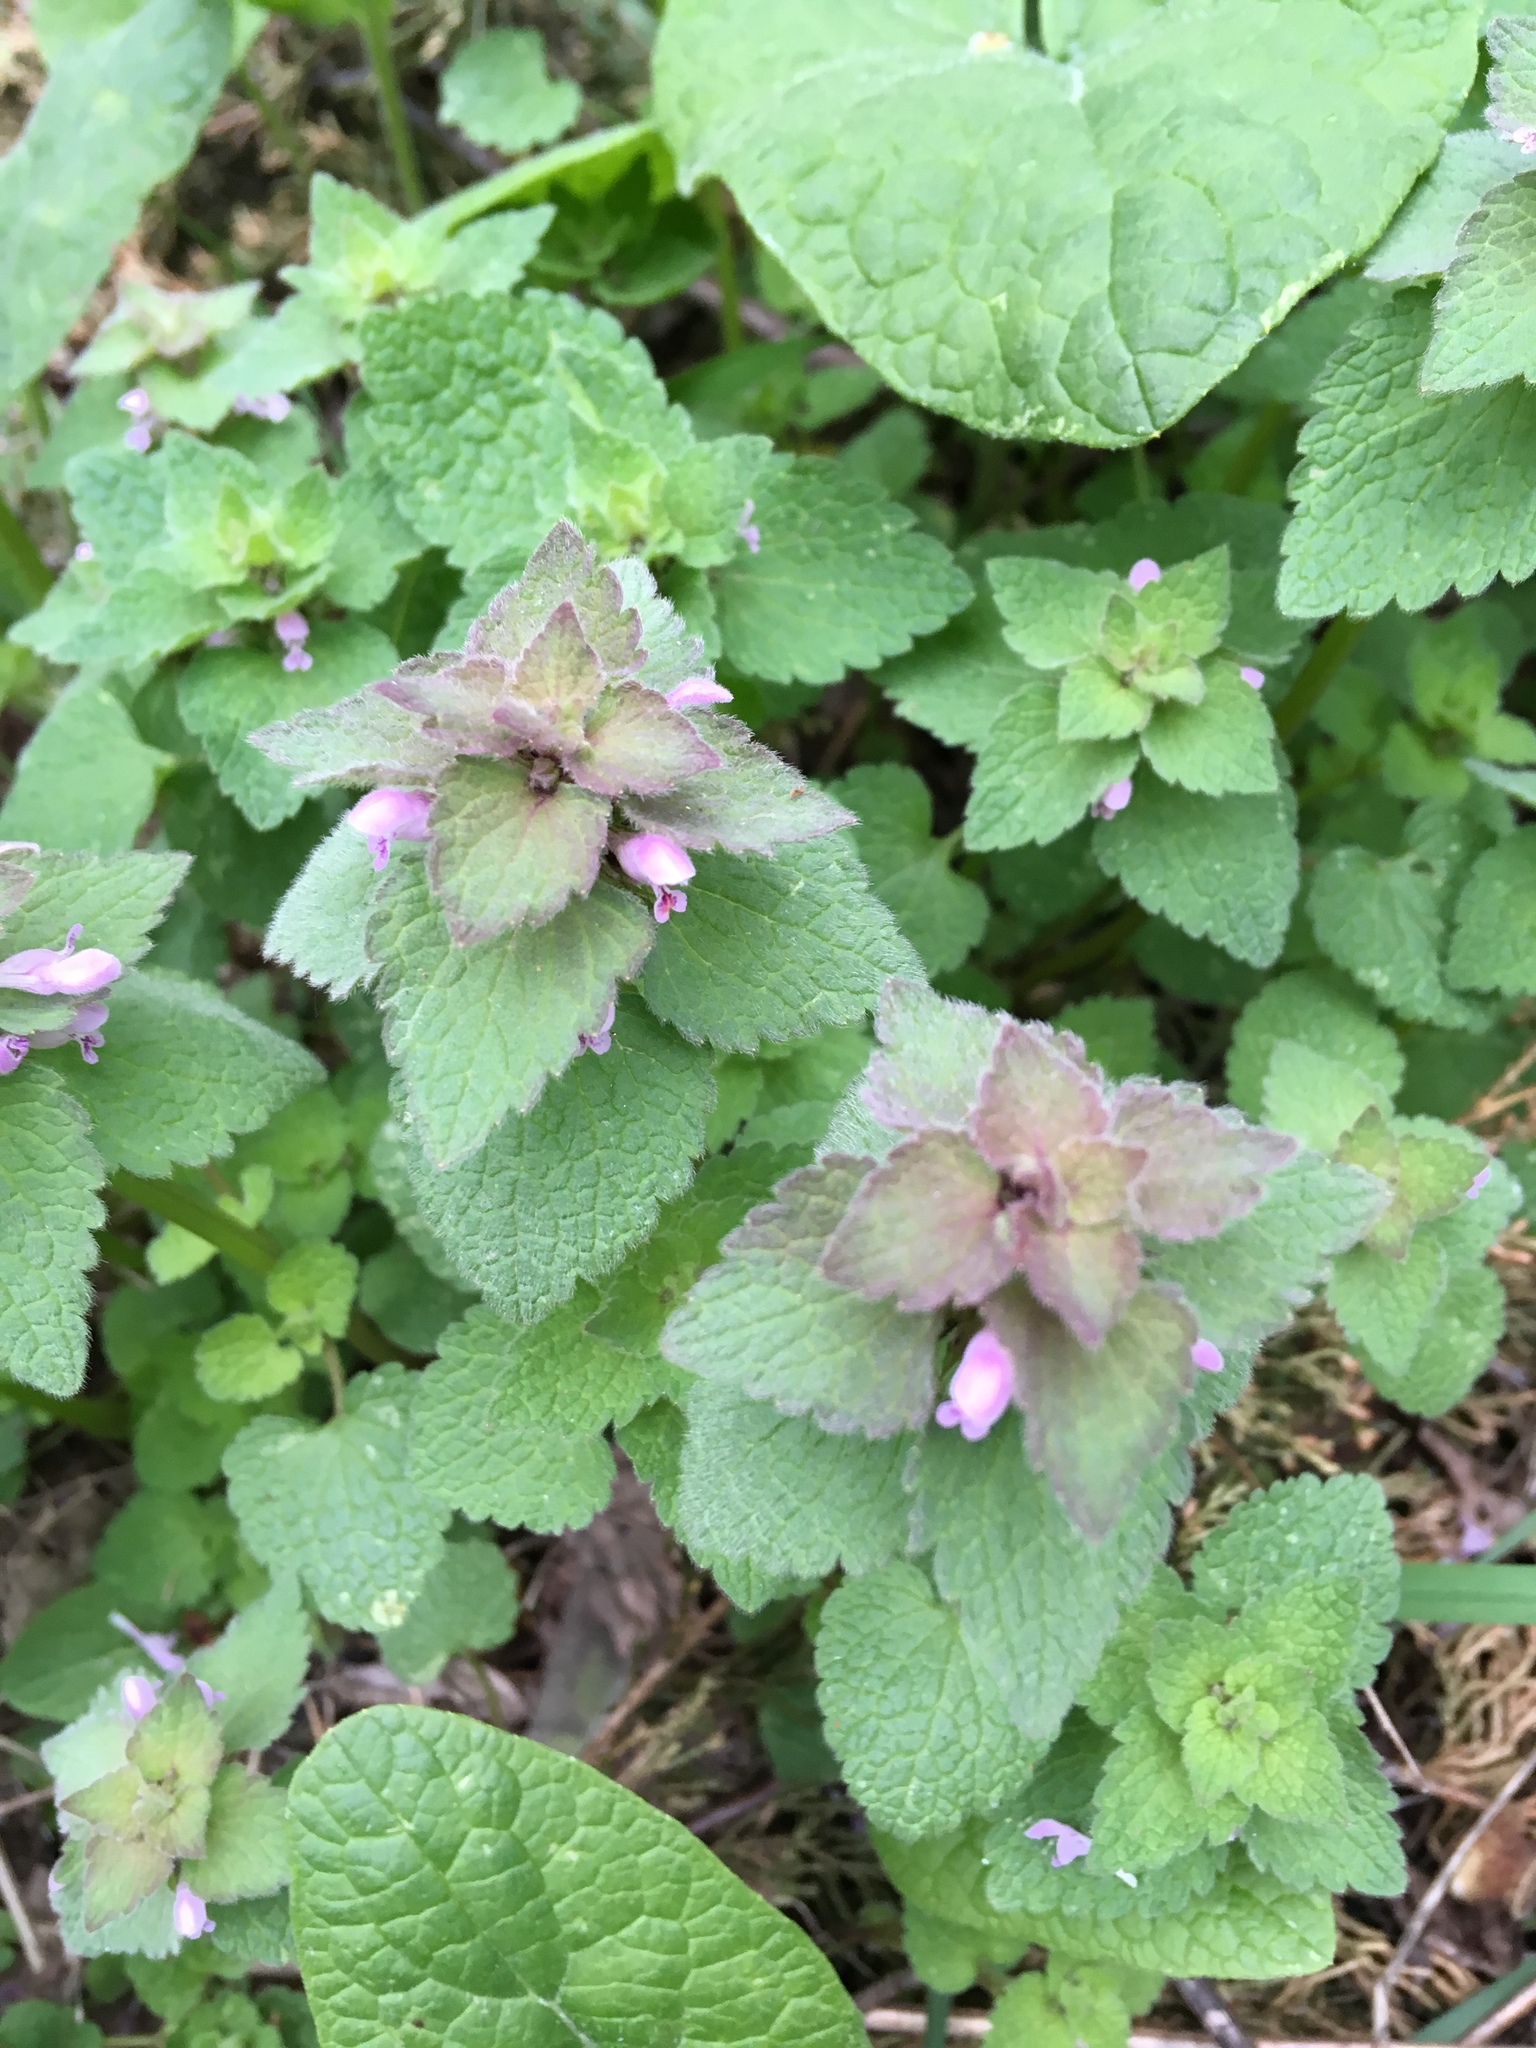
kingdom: Plantae
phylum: Tracheophyta
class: Magnoliopsida
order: Lamiales
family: Lamiaceae
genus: Lamium
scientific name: Lamium purpureum
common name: Red dead-nettle
